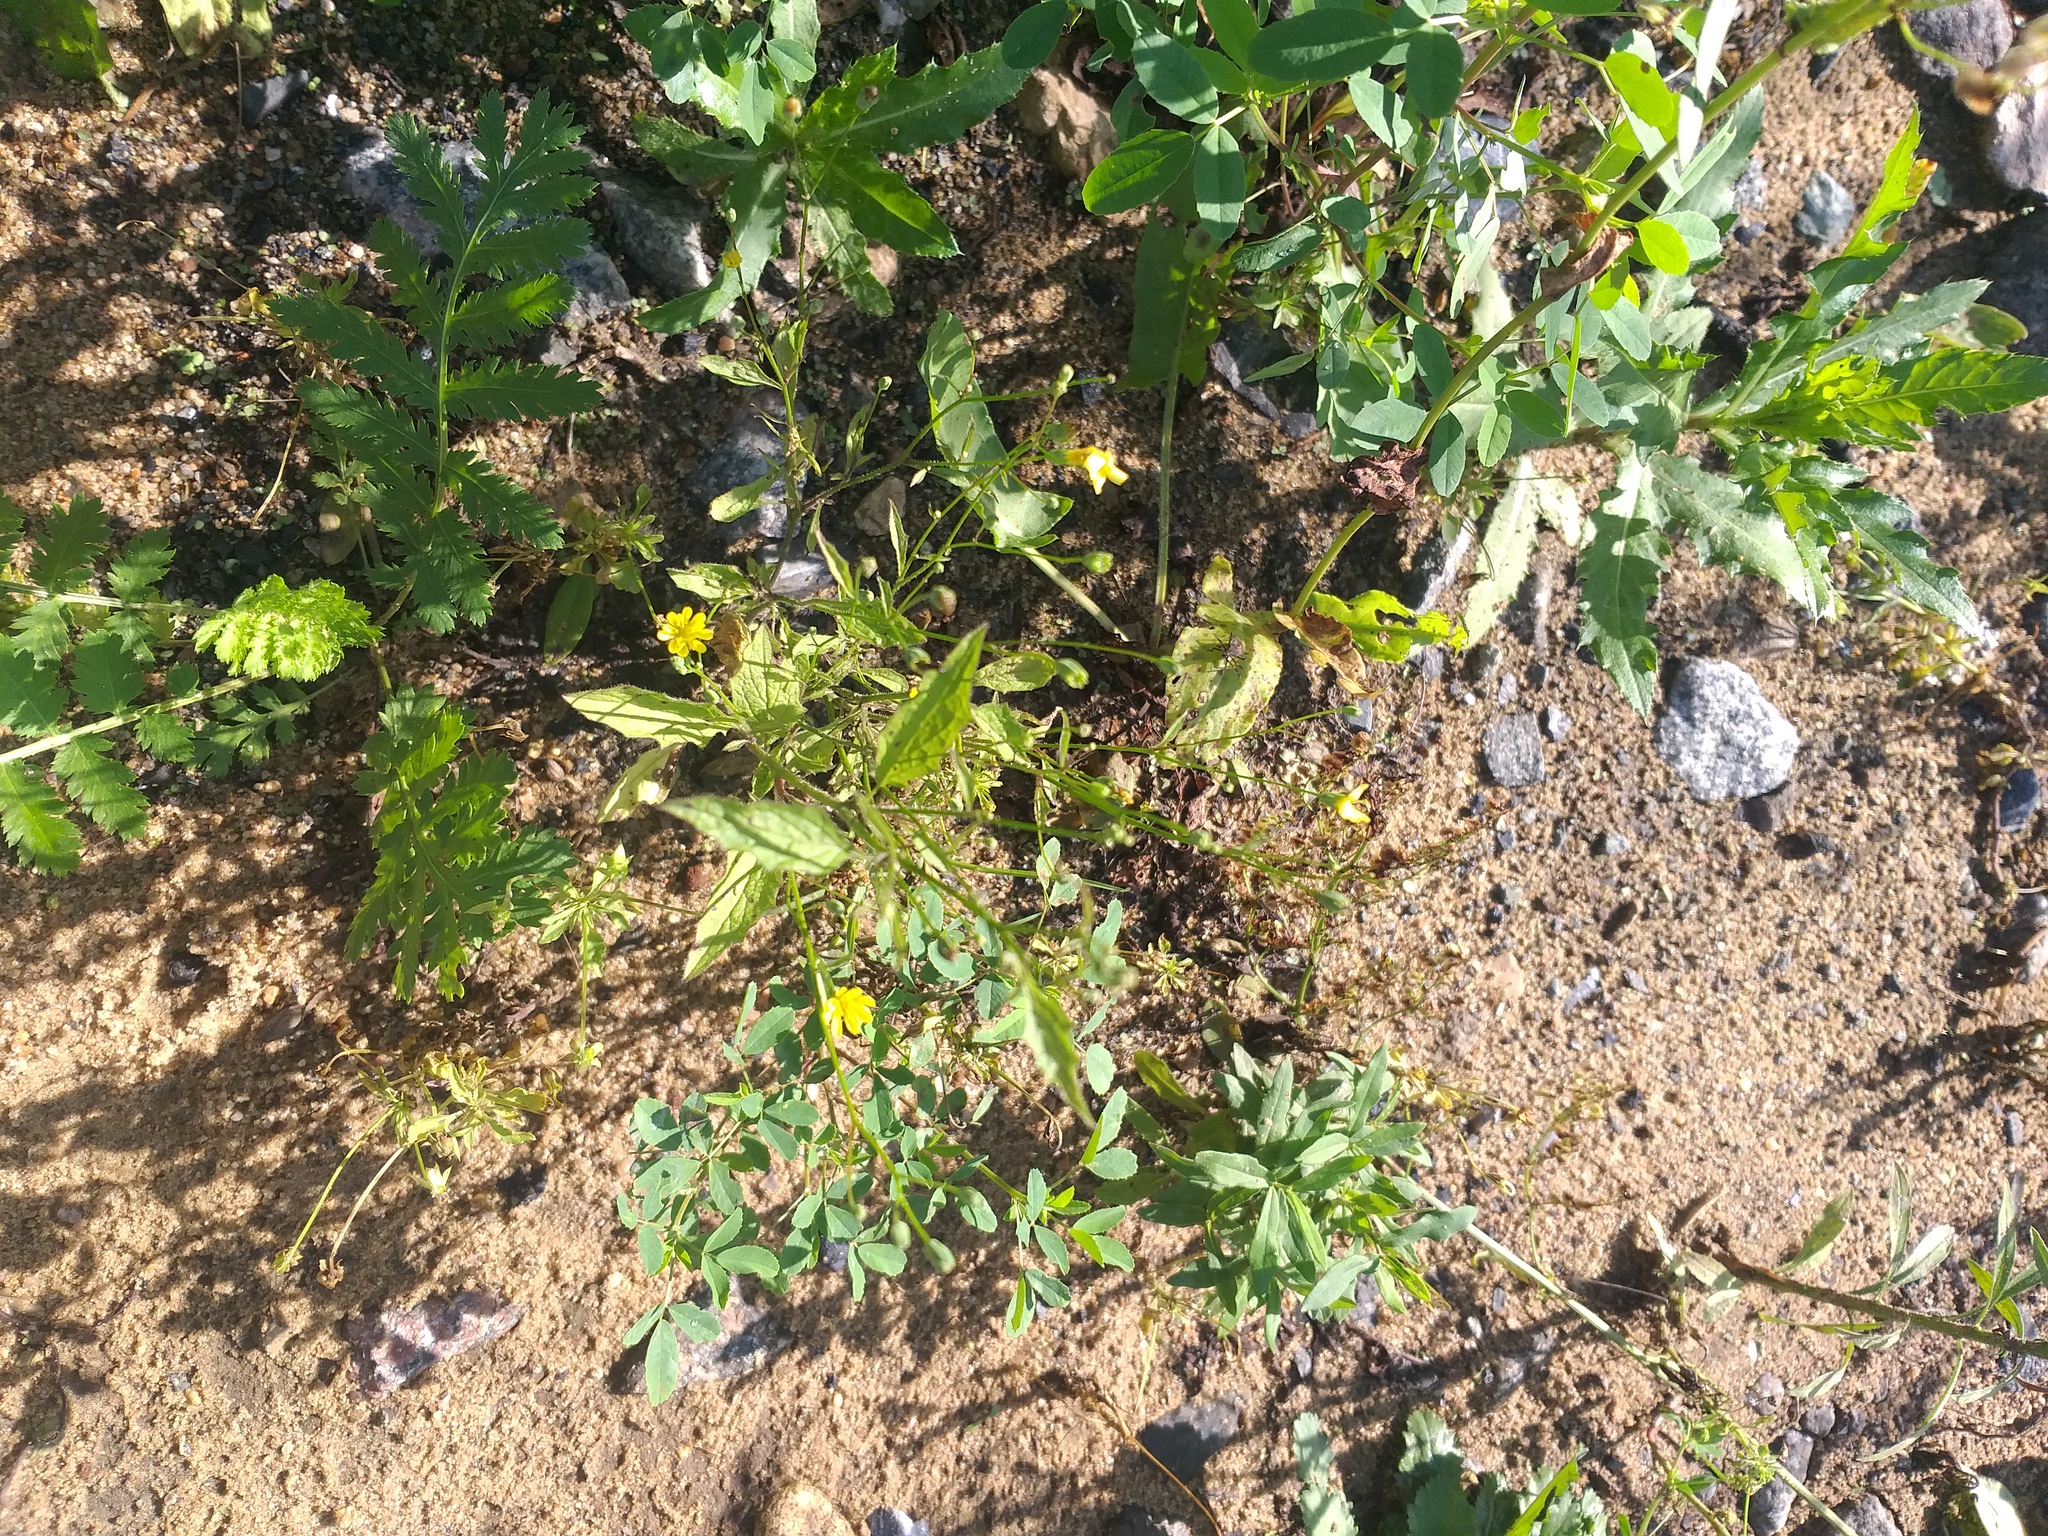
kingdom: Plantae
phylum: Tracheophyta
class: Magnoliopsida
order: Asterales
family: Asteraceae
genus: Lapsana
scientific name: Lapsana communis
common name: Nipplewort
